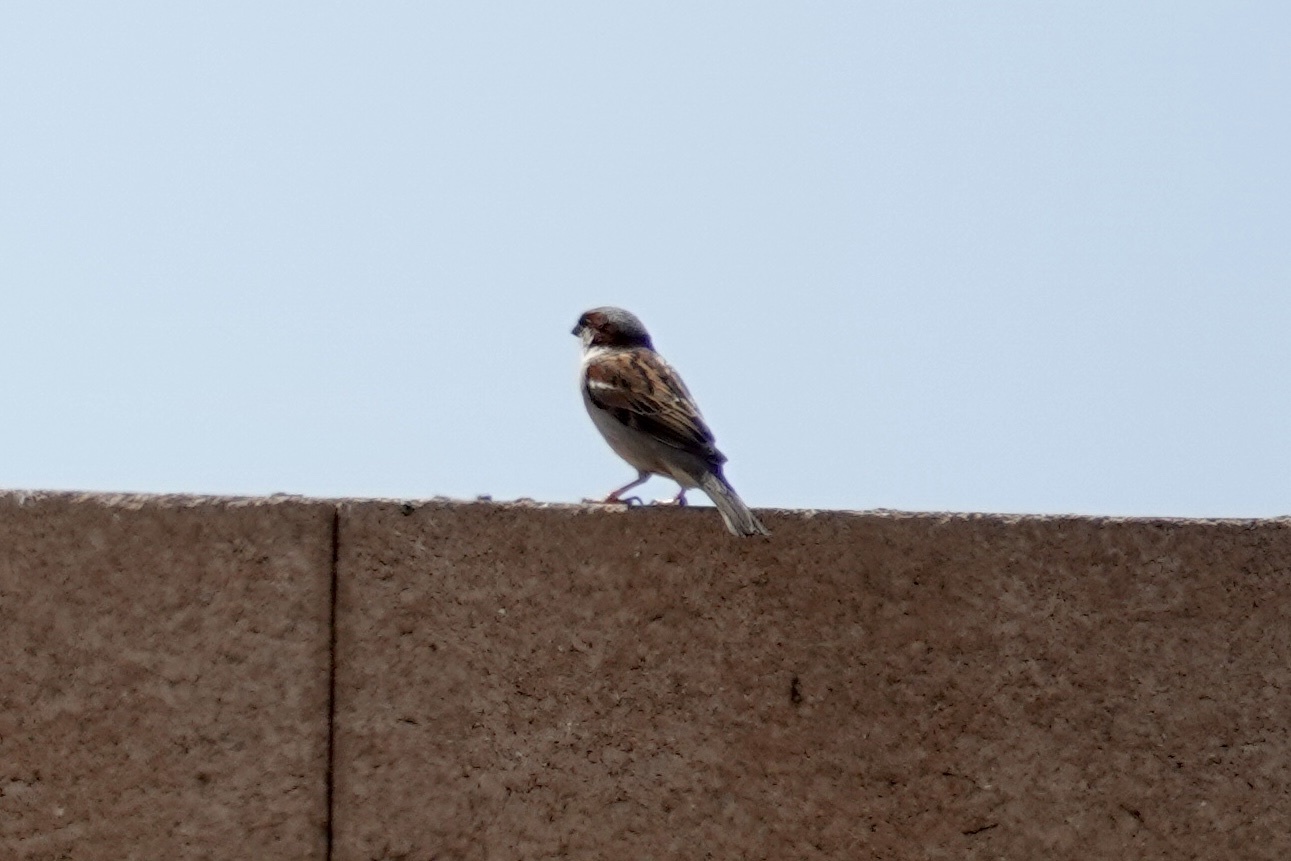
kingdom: Animalia
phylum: Chordata
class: Aves
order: Passeriformes
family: Passeridae
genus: Passer
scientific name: Passer domesticus
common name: House sparrow
